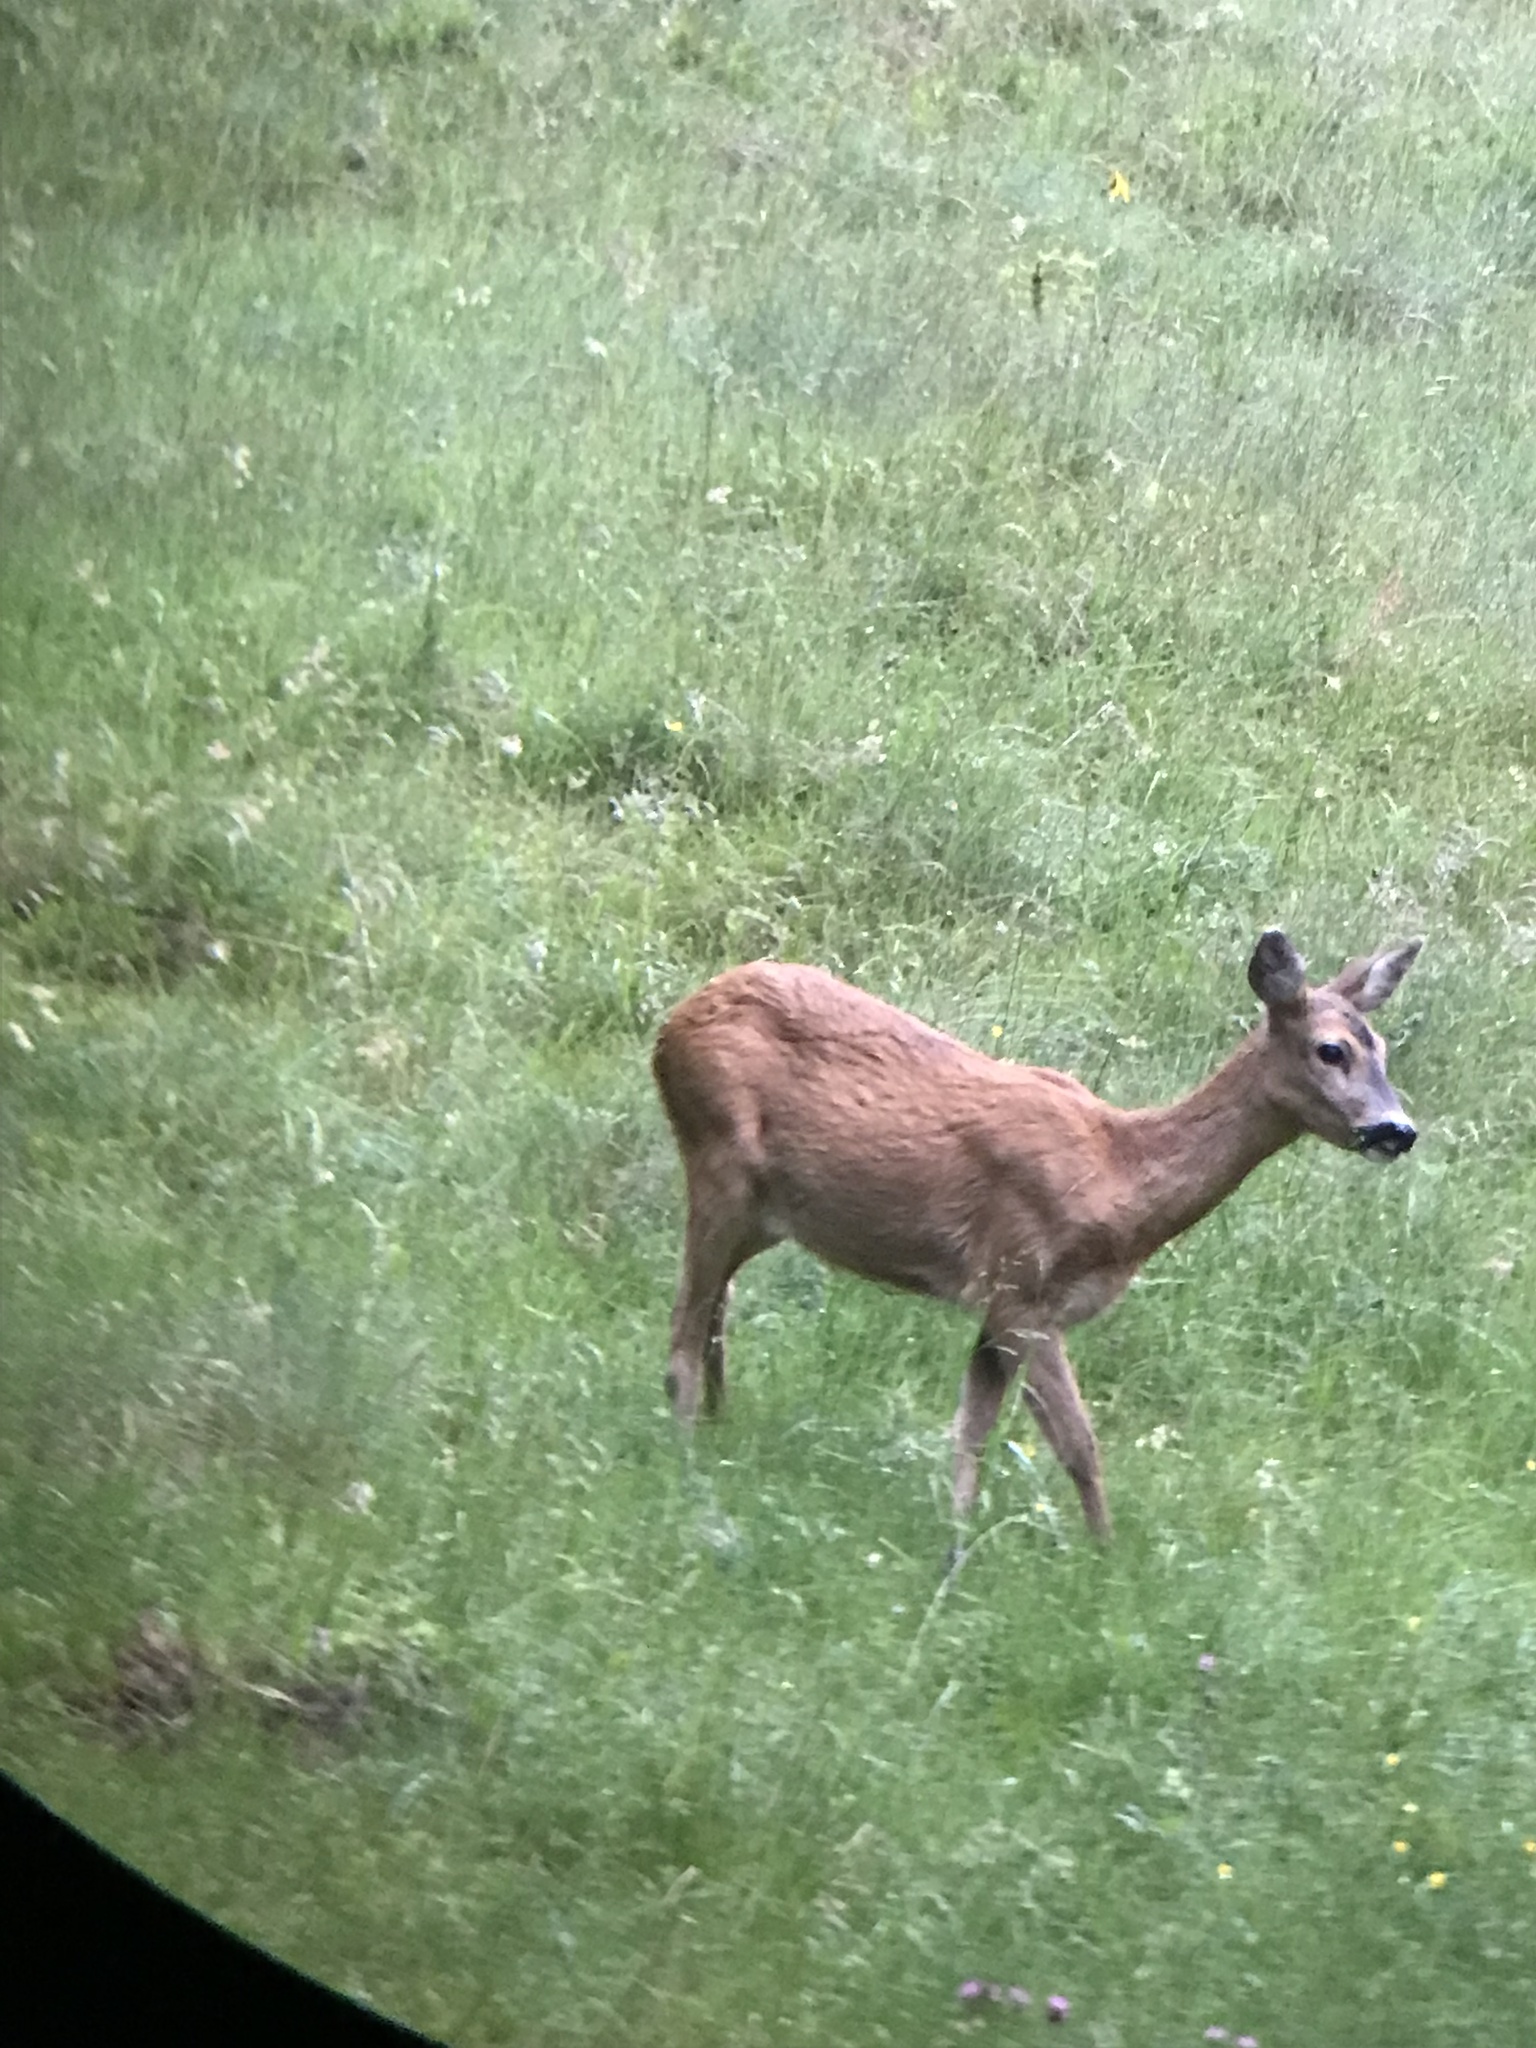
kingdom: Animalia
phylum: Chordata
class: Mammalia
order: Artiodactyla
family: Cervidae
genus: Capreolus
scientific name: Capreolus capreolus
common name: Western roe deer
